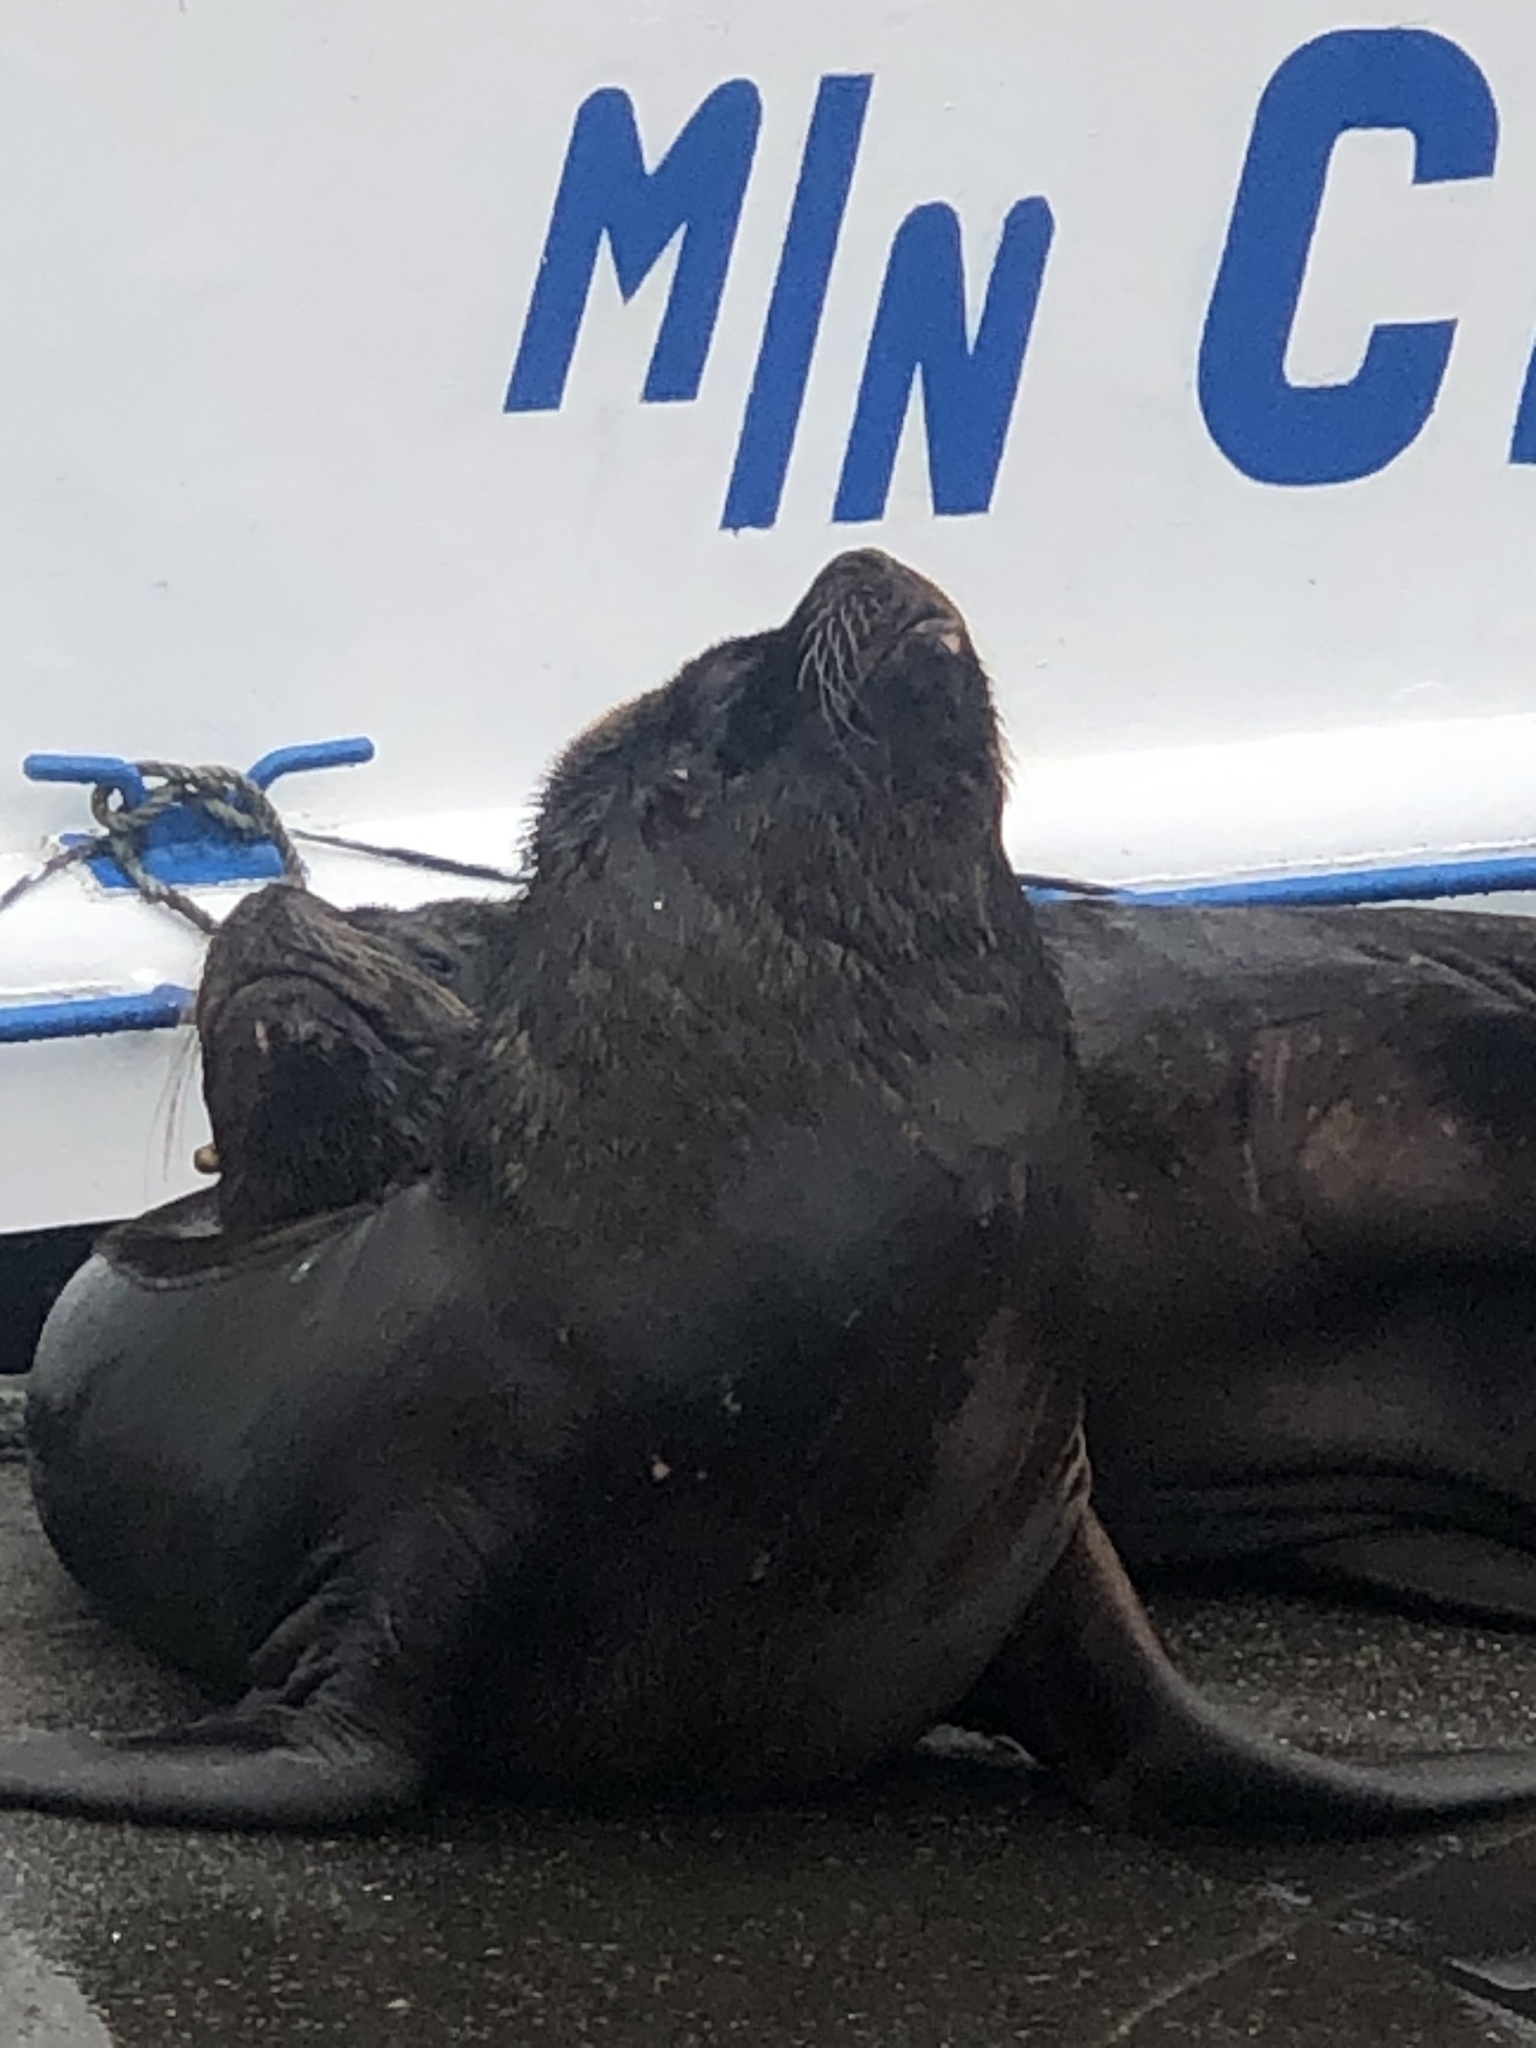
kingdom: Animalia
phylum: Chordata
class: Mammalia
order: Carnivora
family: Otariidae
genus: Otaria
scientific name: Otaria byronia
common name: South american sea lion
